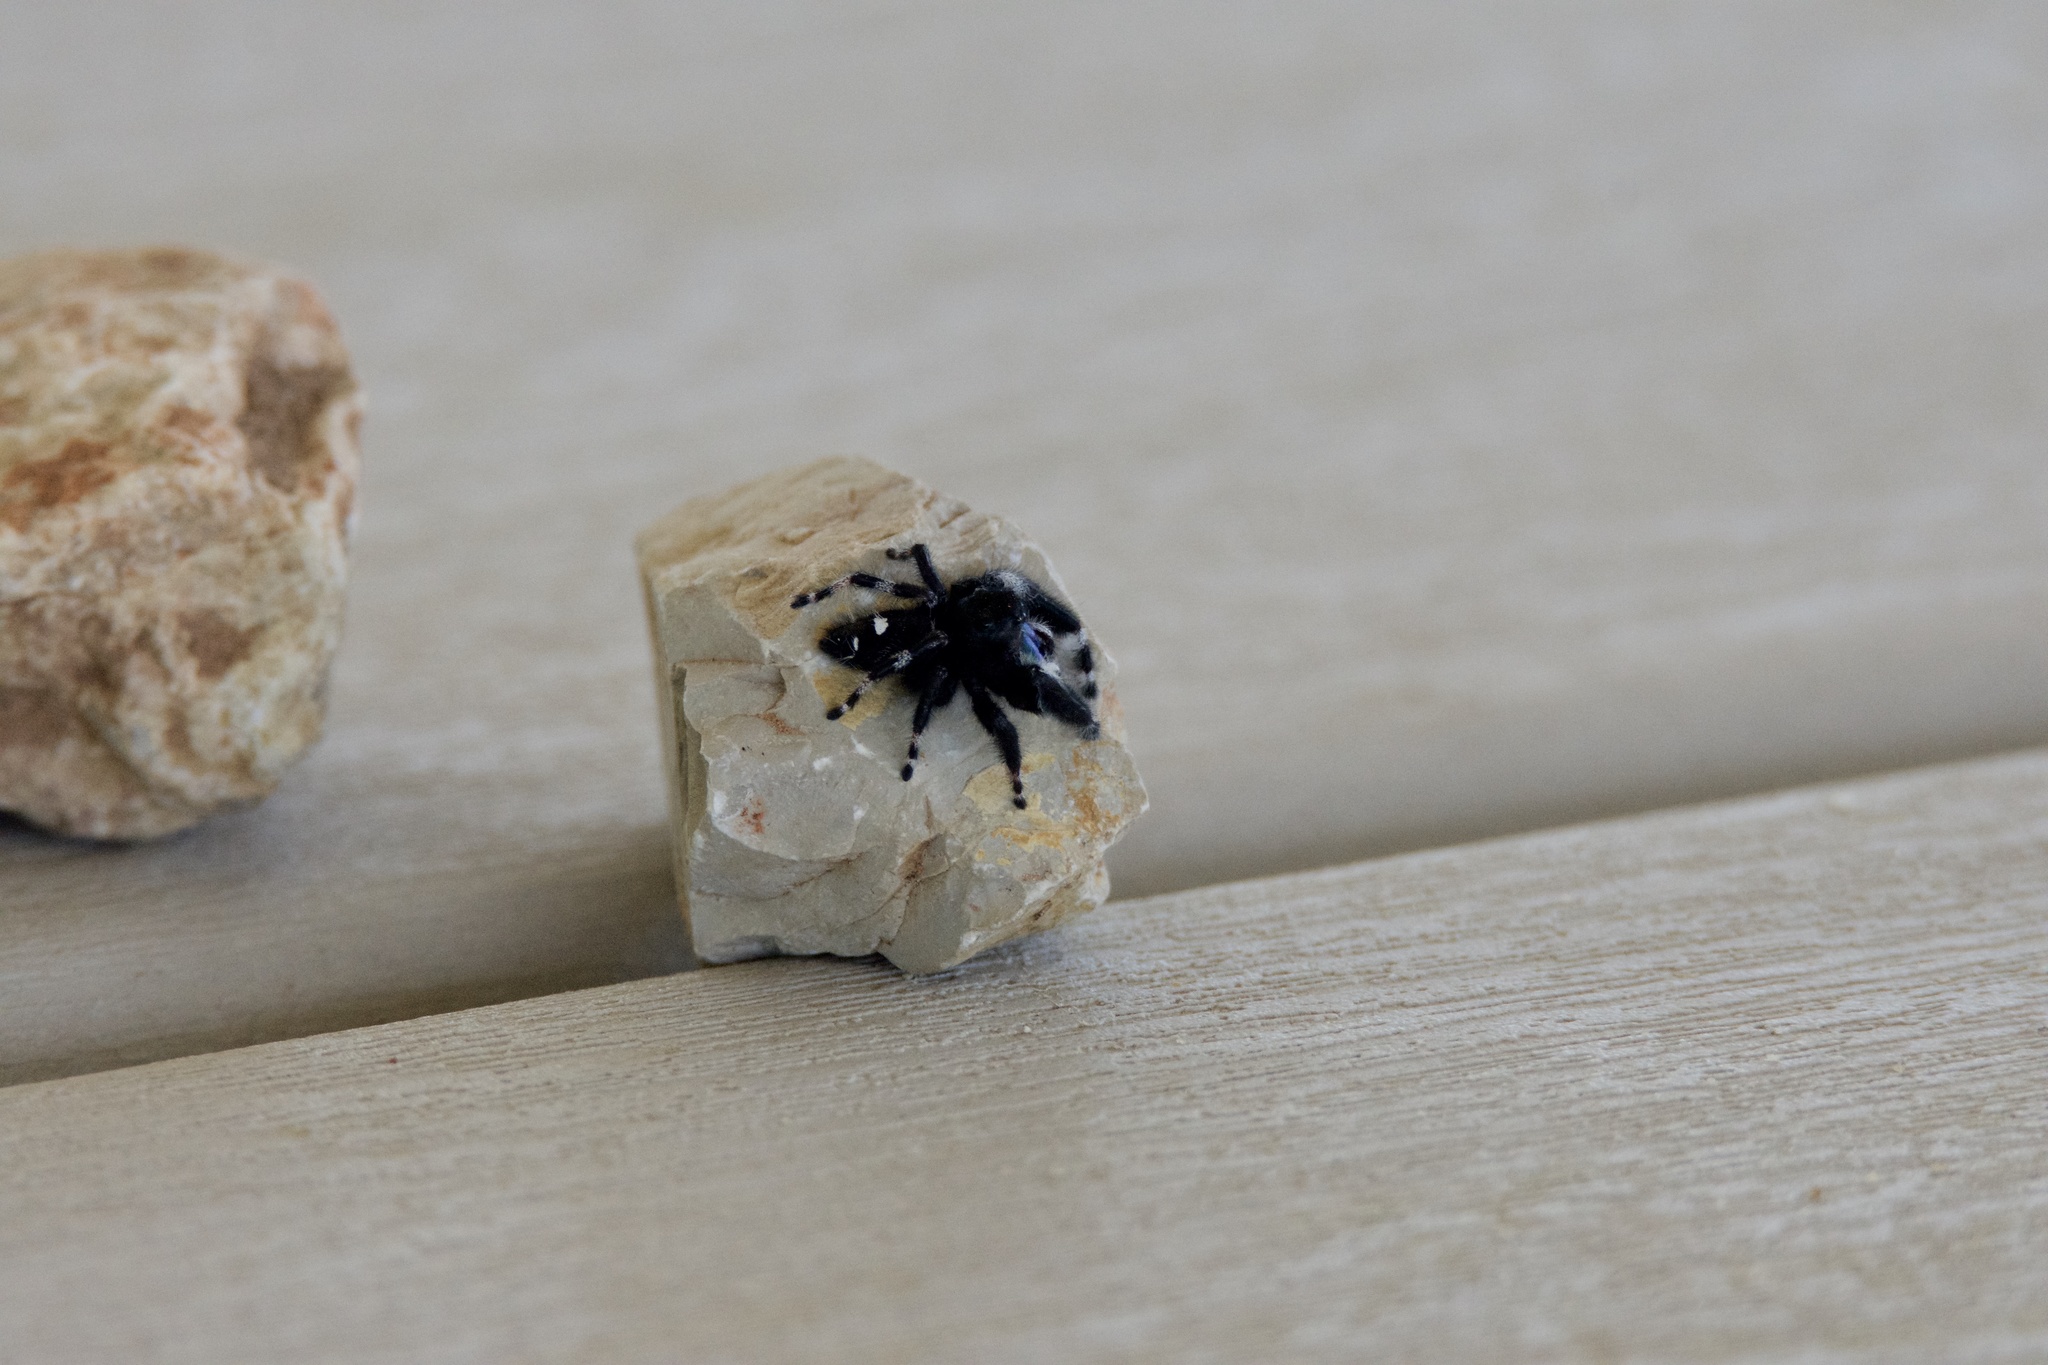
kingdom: Animalia
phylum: Arthropoda
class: Arachnida
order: Araneae
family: Salticidae
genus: Phidippus
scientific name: Phidippus audax
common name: Bold jumper
